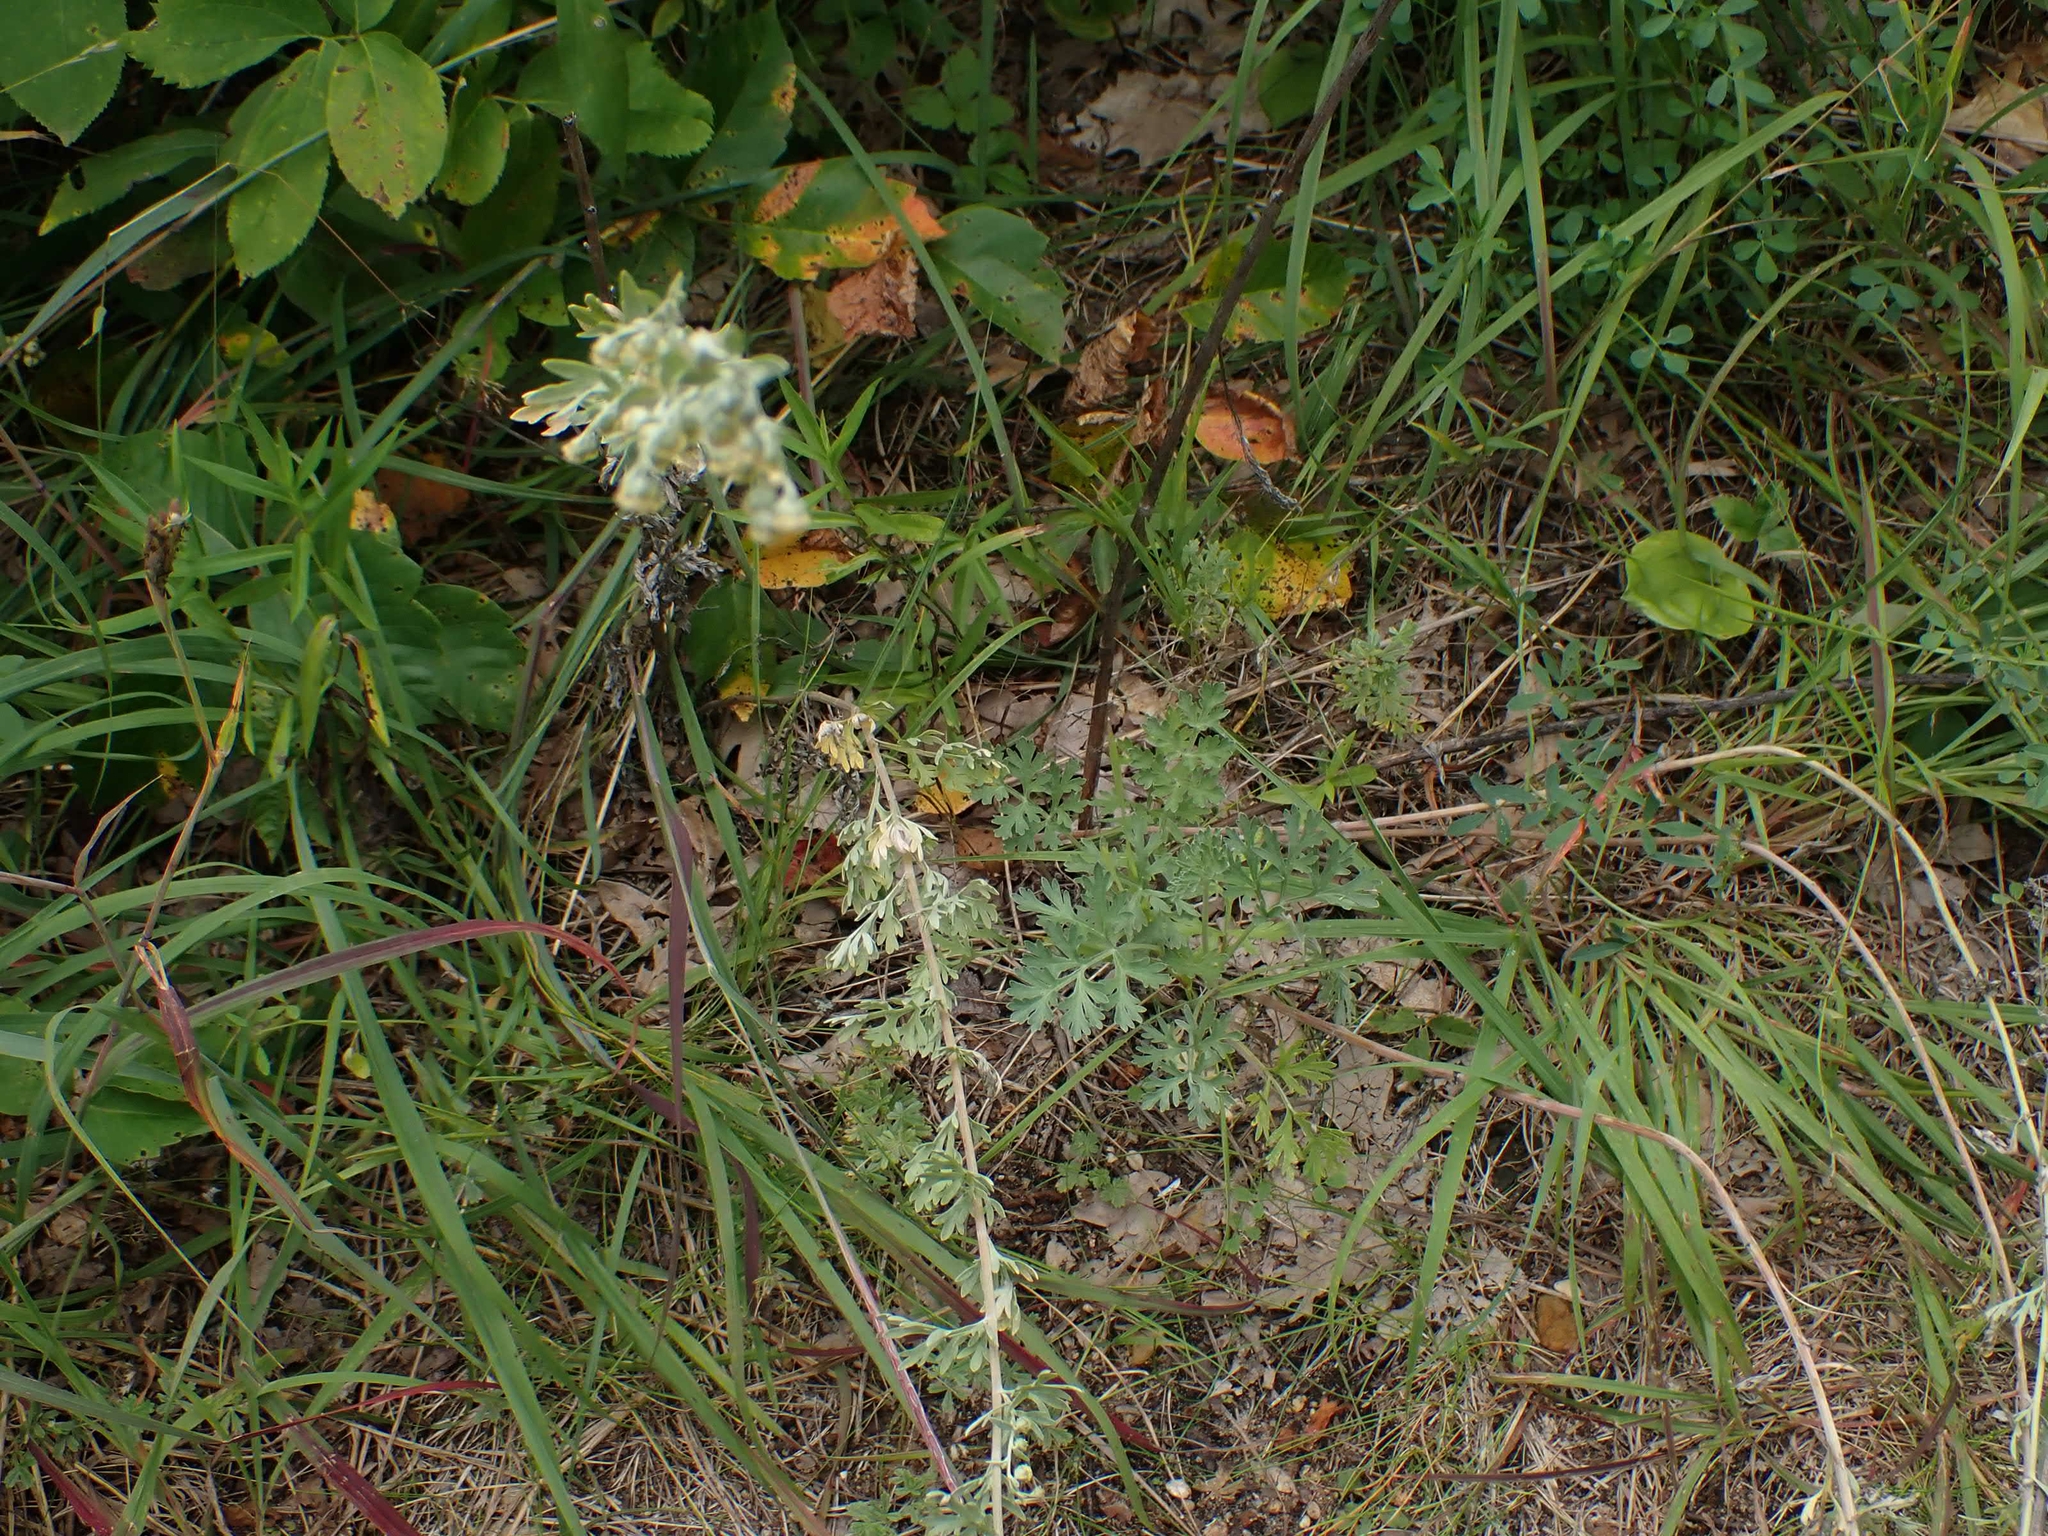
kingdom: Plantae
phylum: Tracheophyta
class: Magnoliopsida
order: Asterales
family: Asteraceae
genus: Artemisia
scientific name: Artemisia absinthium
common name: Wormwood
